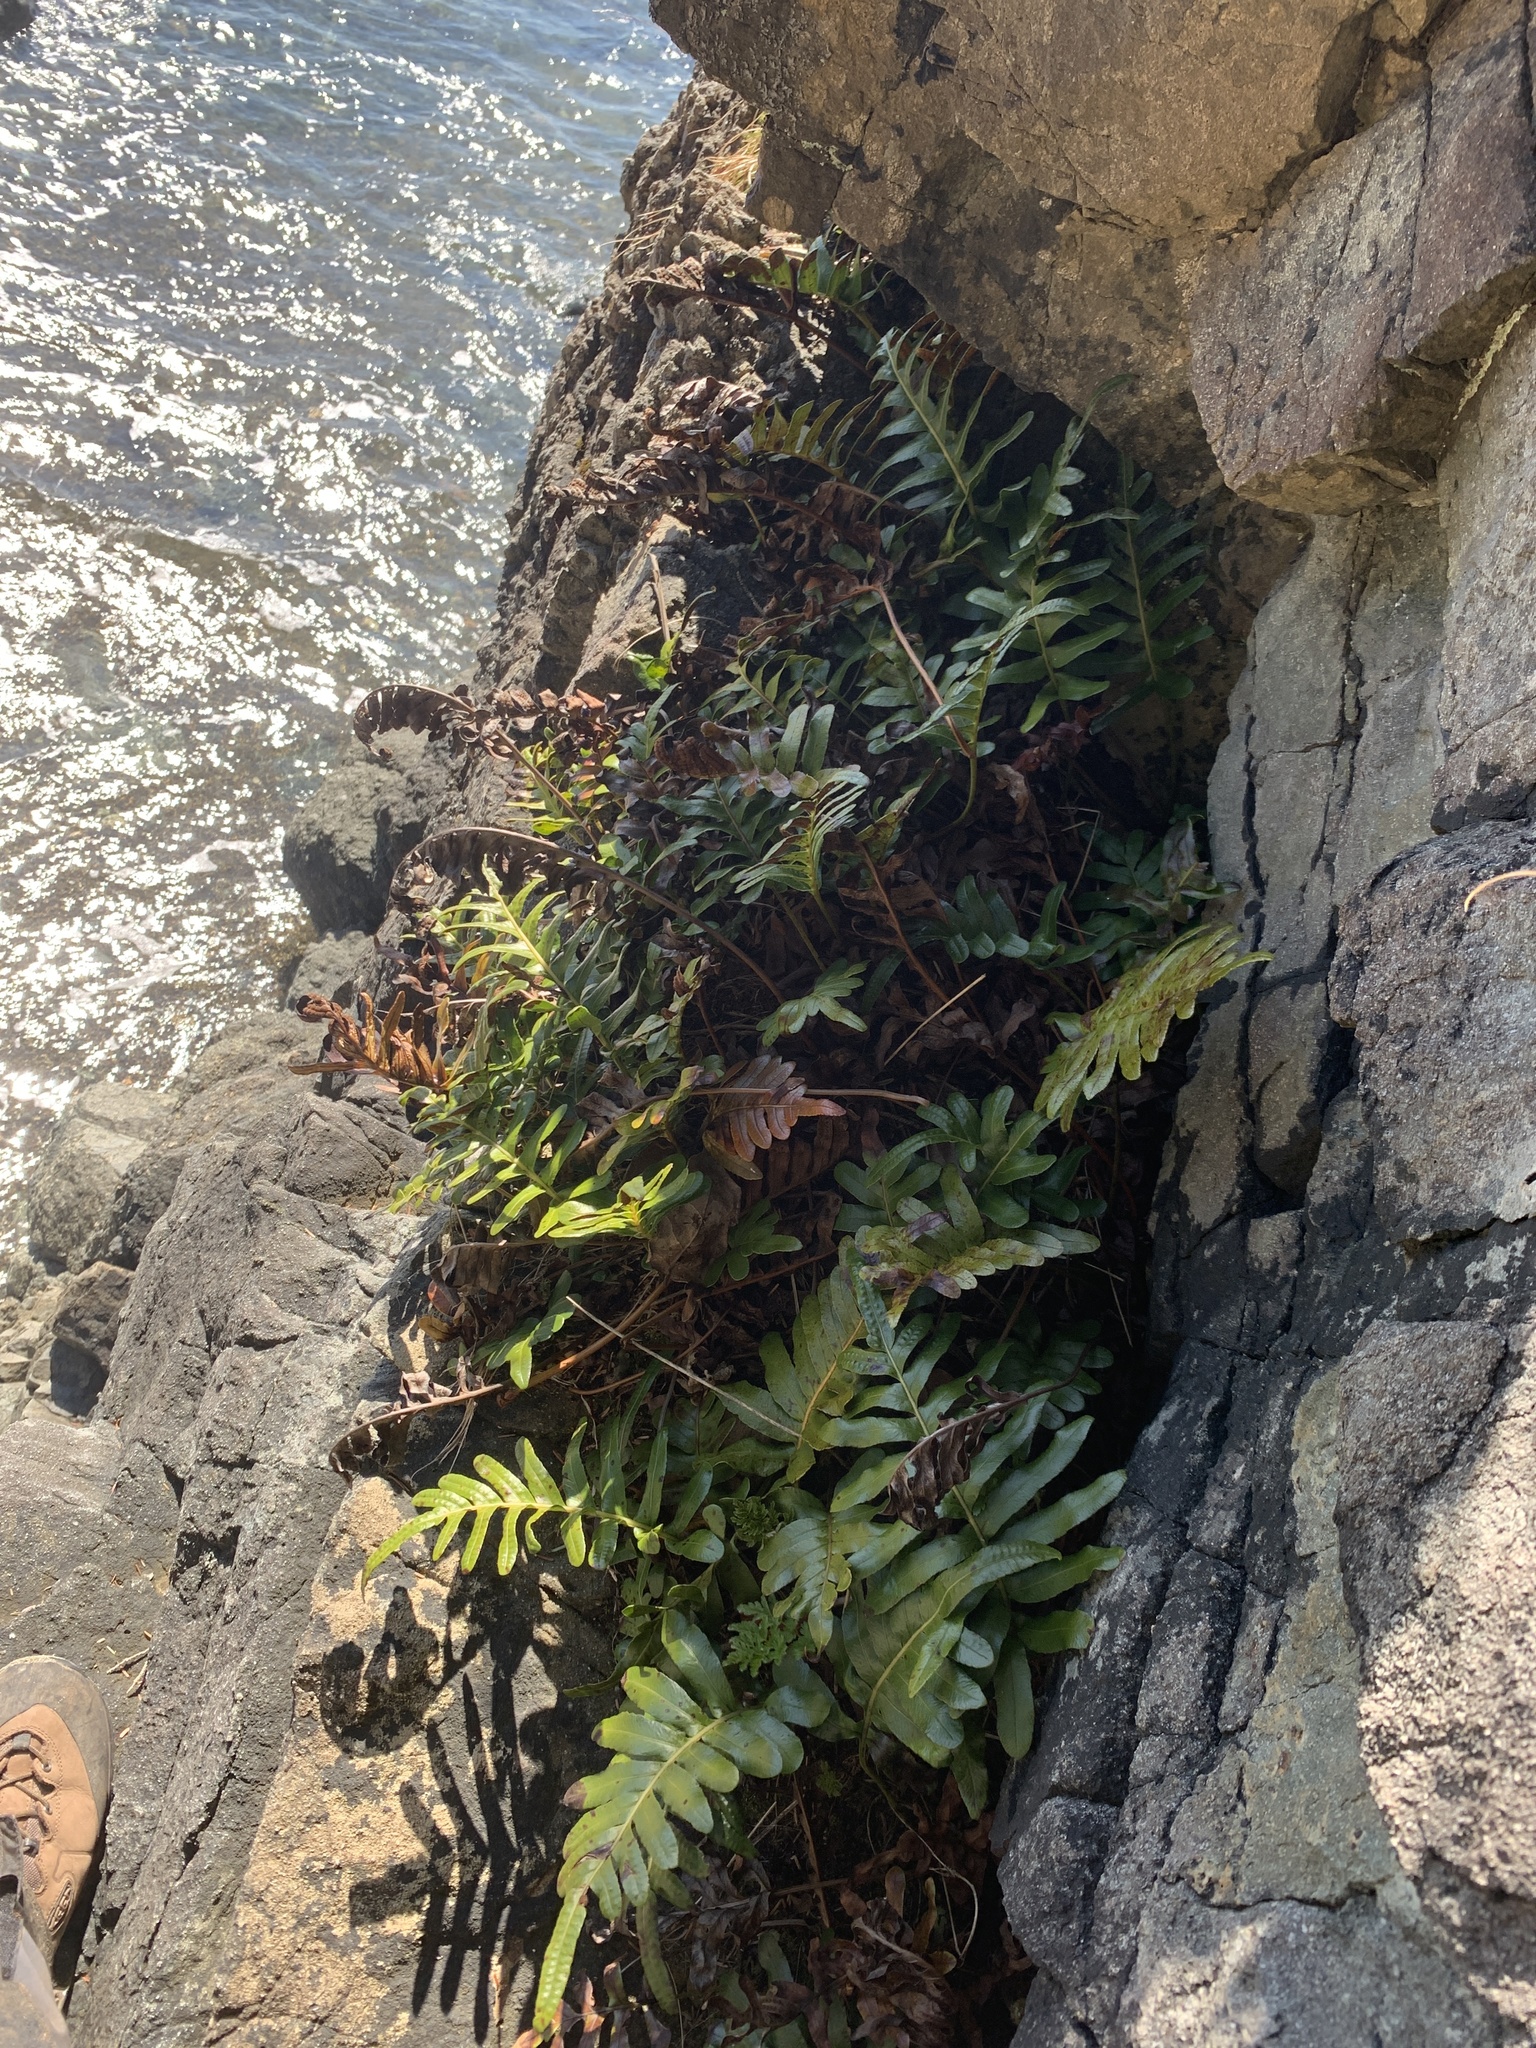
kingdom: Plantae
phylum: Tracheophyta
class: Polypodiopsida
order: Polypodiales
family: Polypodiaceae
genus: Polypodium
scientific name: Polypodium scouleri
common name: Scouler's polypody
